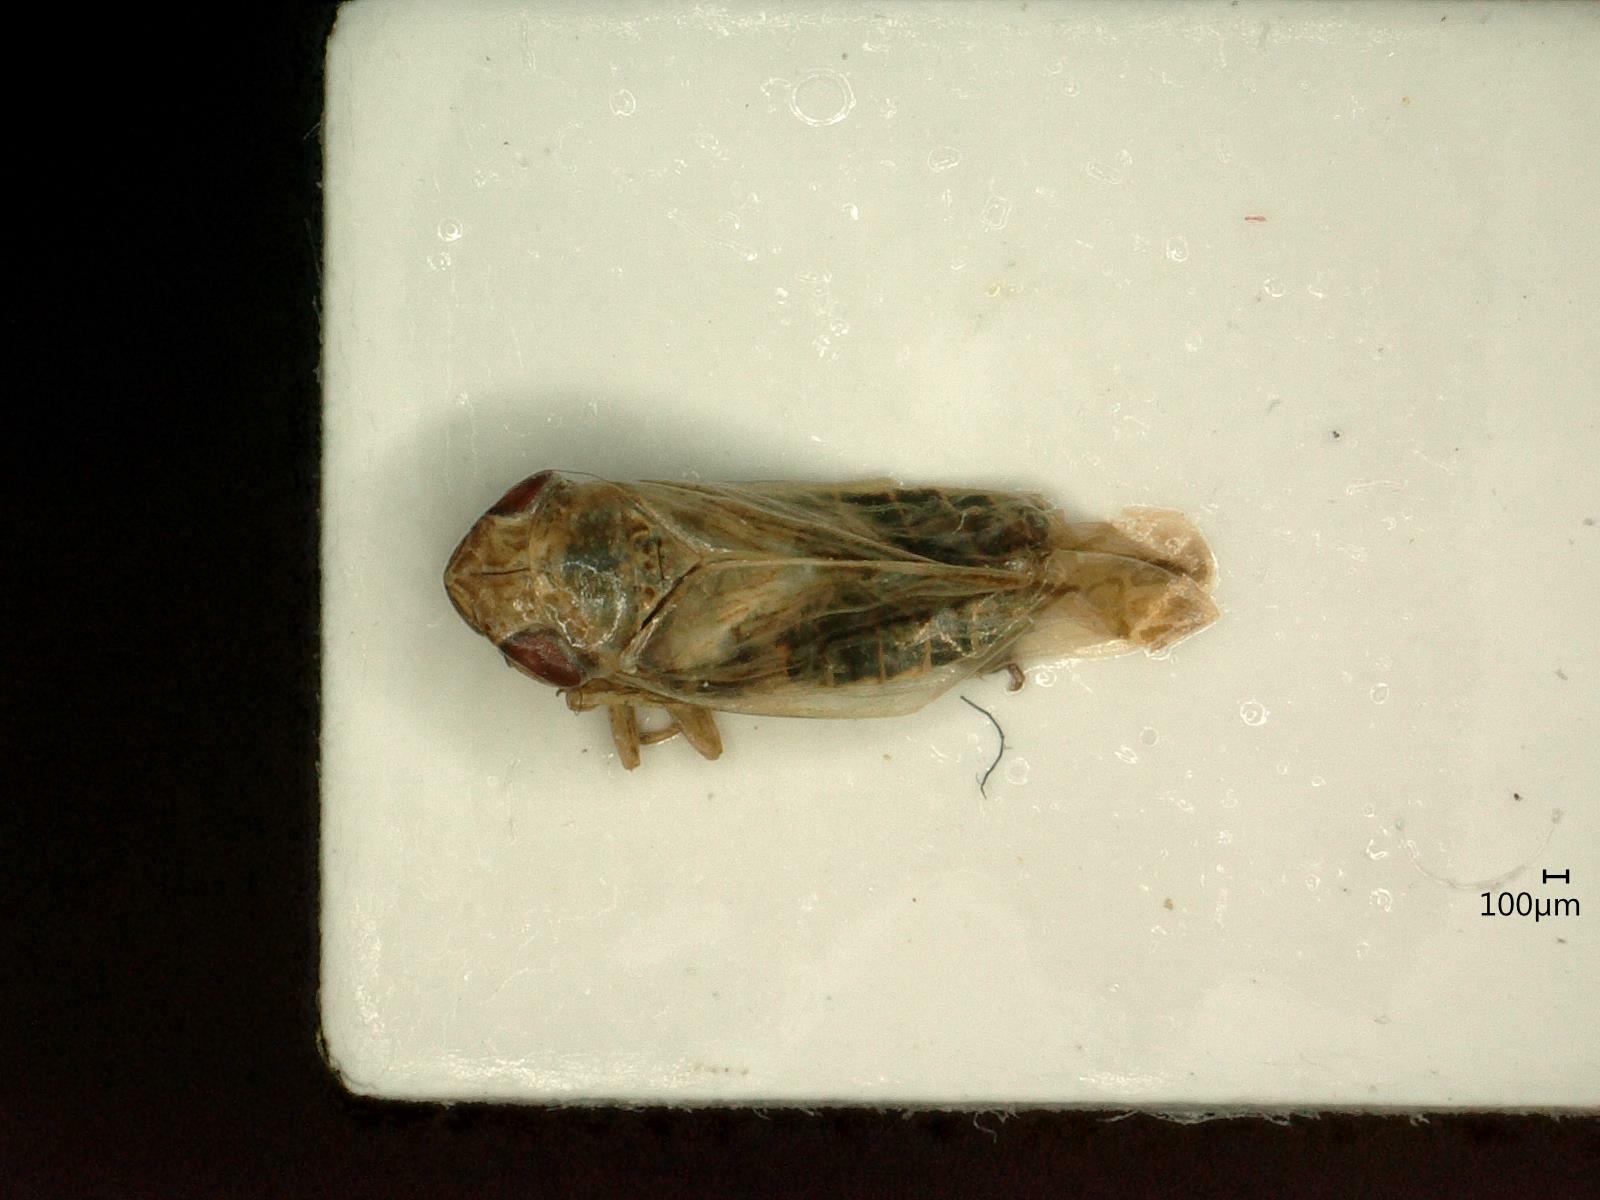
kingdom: Animalia
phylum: Arthropoda
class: Insecta
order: Hemiptera
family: Cicadellidae
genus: Psammotettix
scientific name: Psammotettix confinis
